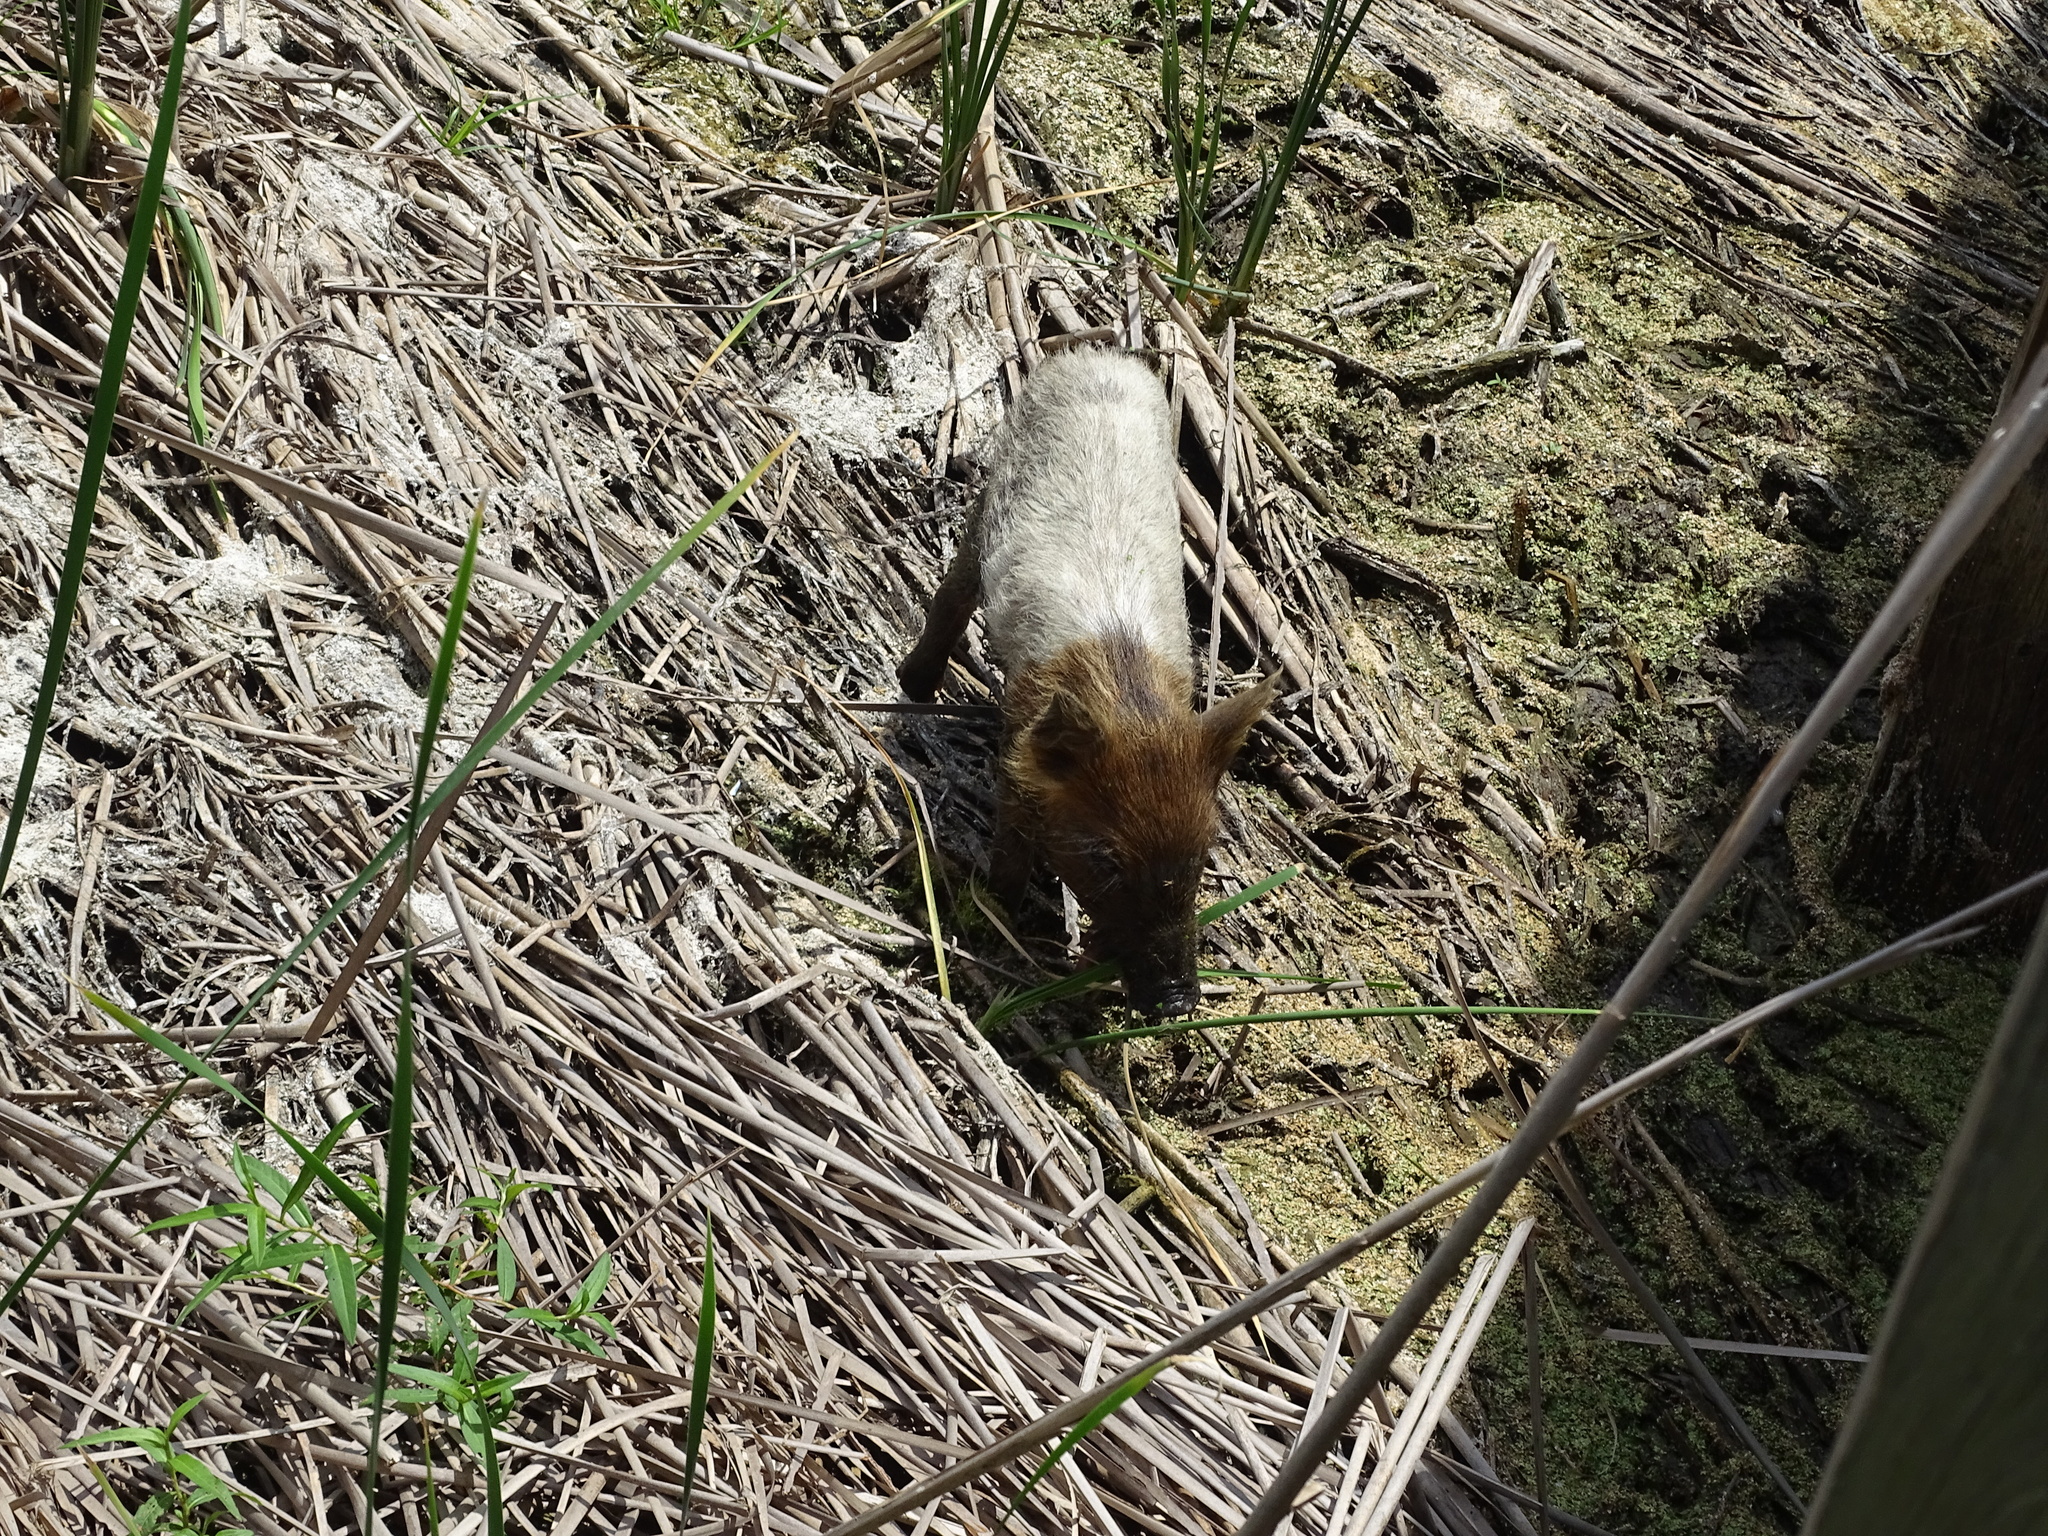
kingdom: Animalia
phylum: Chordata
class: Mammalia
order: Artiodactyla
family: Suidae
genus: Sus
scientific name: Sus scrofa
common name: Wild boar
